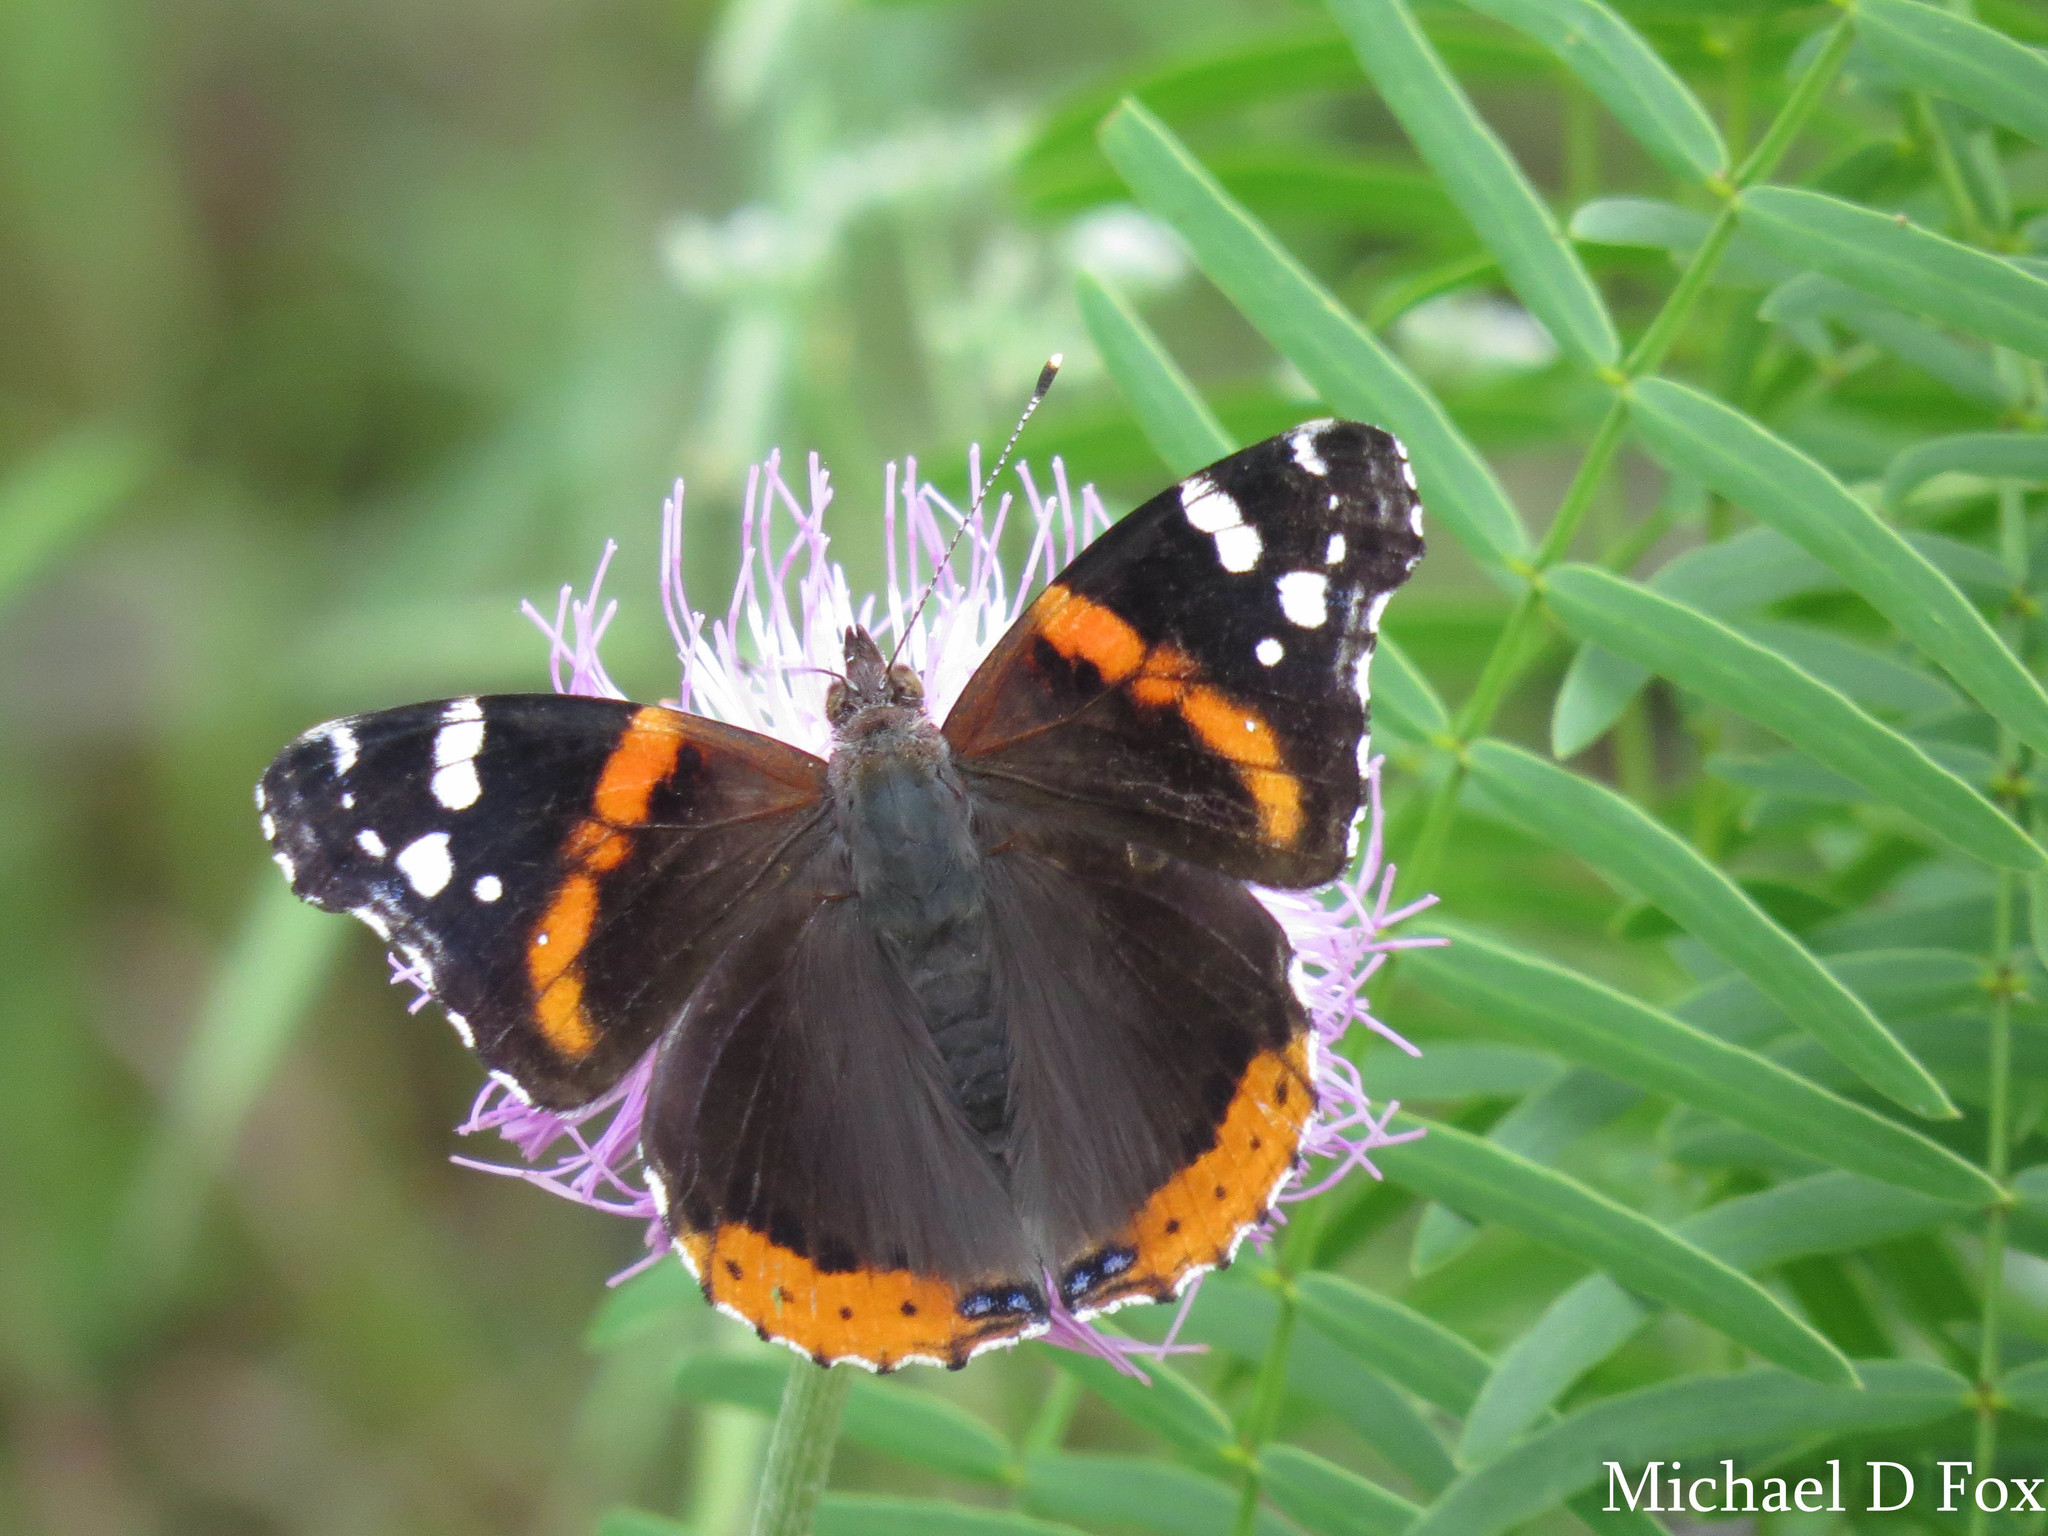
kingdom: Animalia
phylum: Arthropoda
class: Insecta
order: Lepidoptera
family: Nymphalidae
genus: Vanessa
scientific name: Vanessa atalanta
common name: Red admiral
